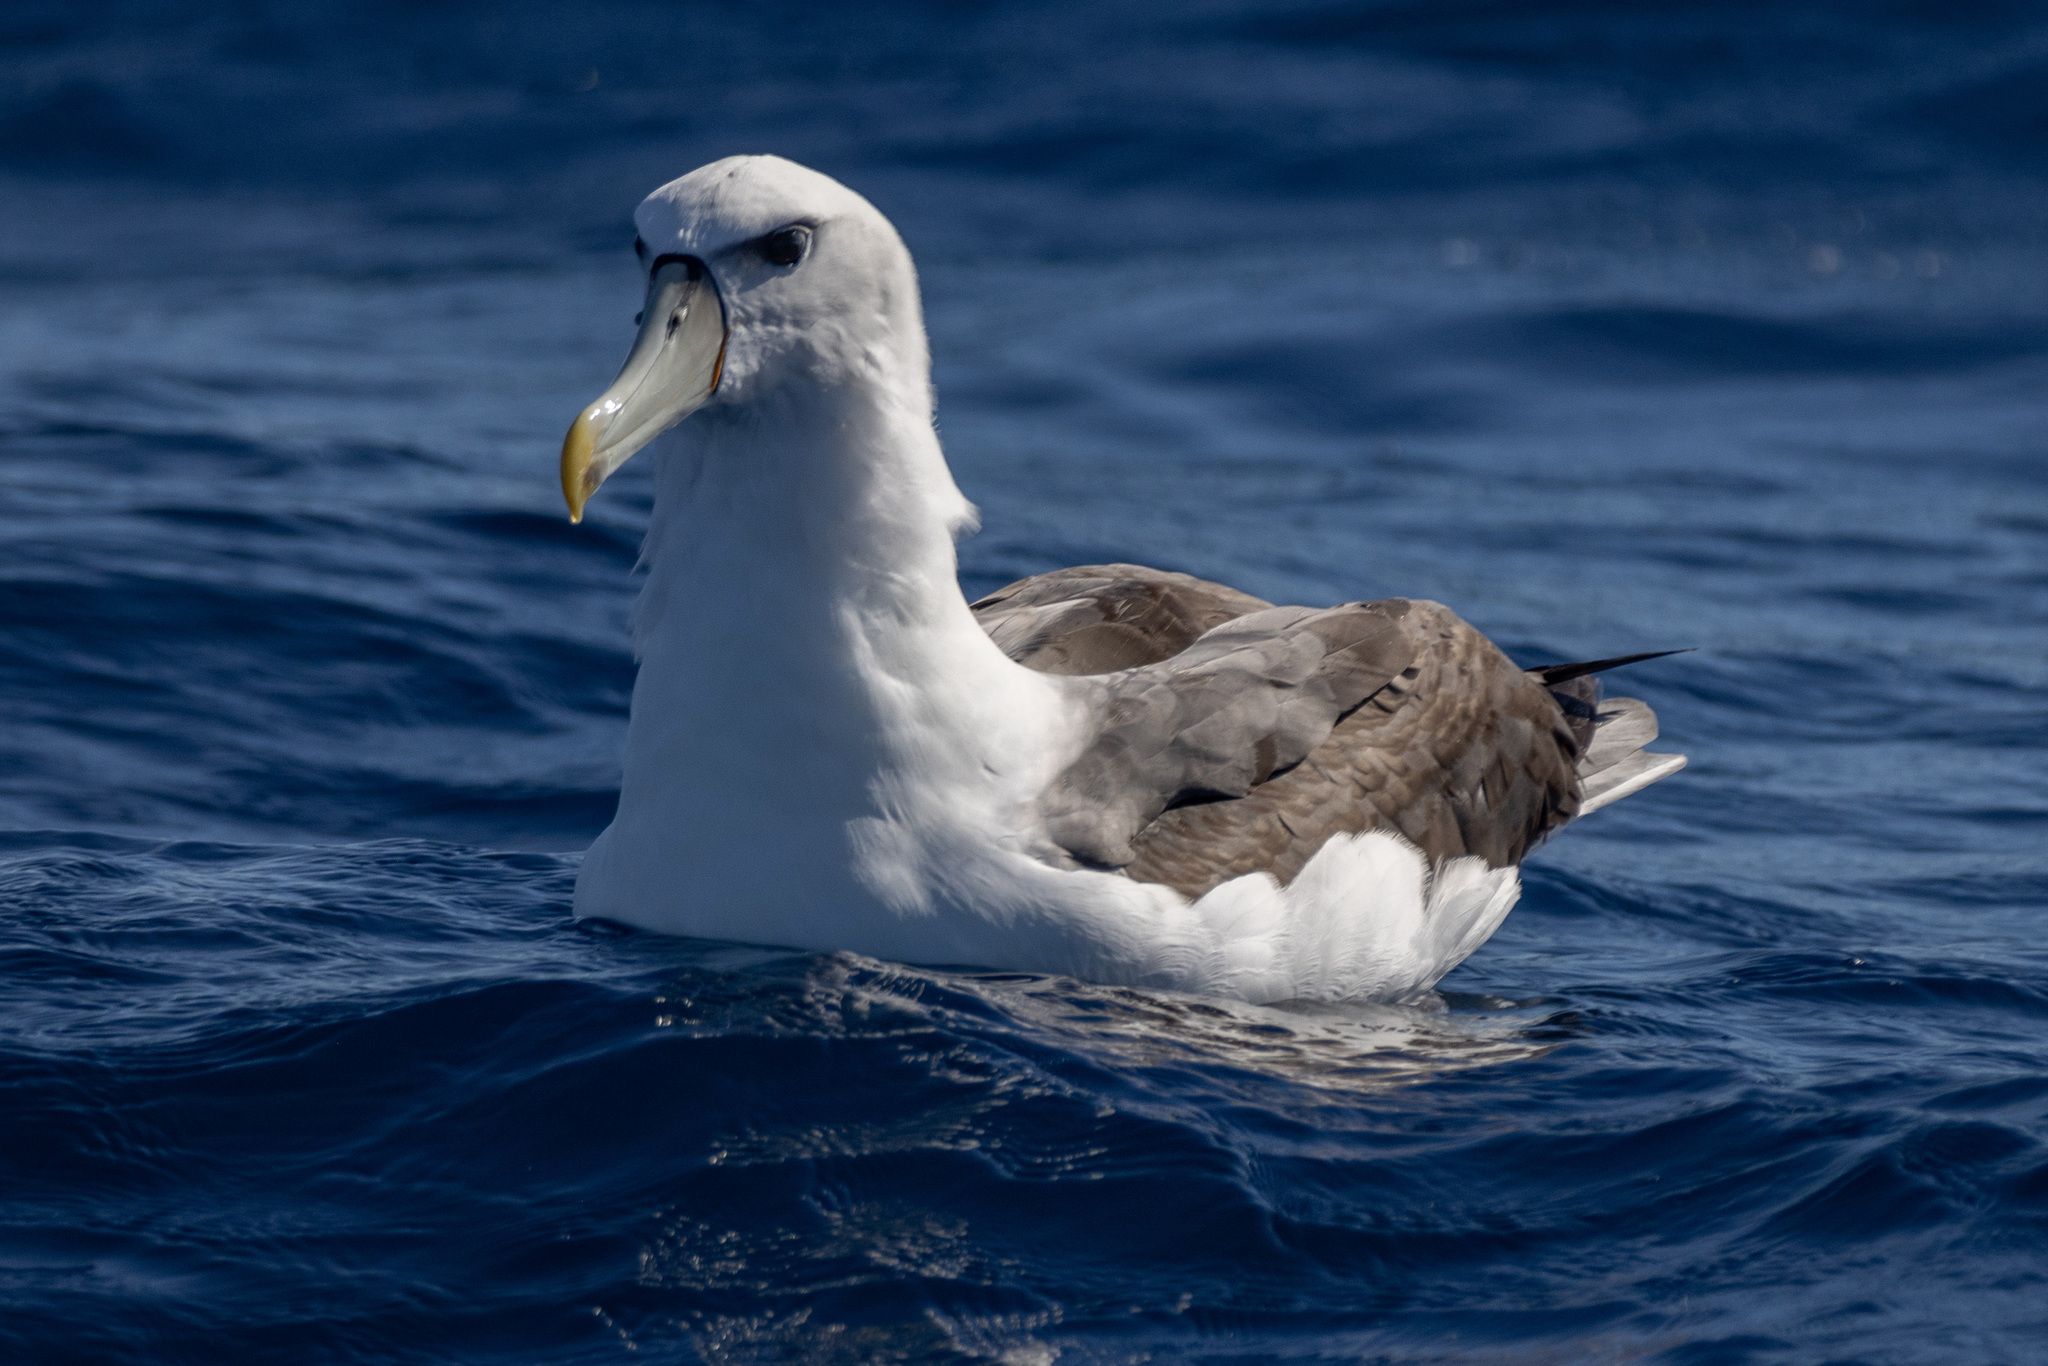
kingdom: Animalia
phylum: Chordata
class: Aves
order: Procellariiformes
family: Diomedeidae
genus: Thalassarche
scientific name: Thalassarche cauta
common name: Shy albatross
